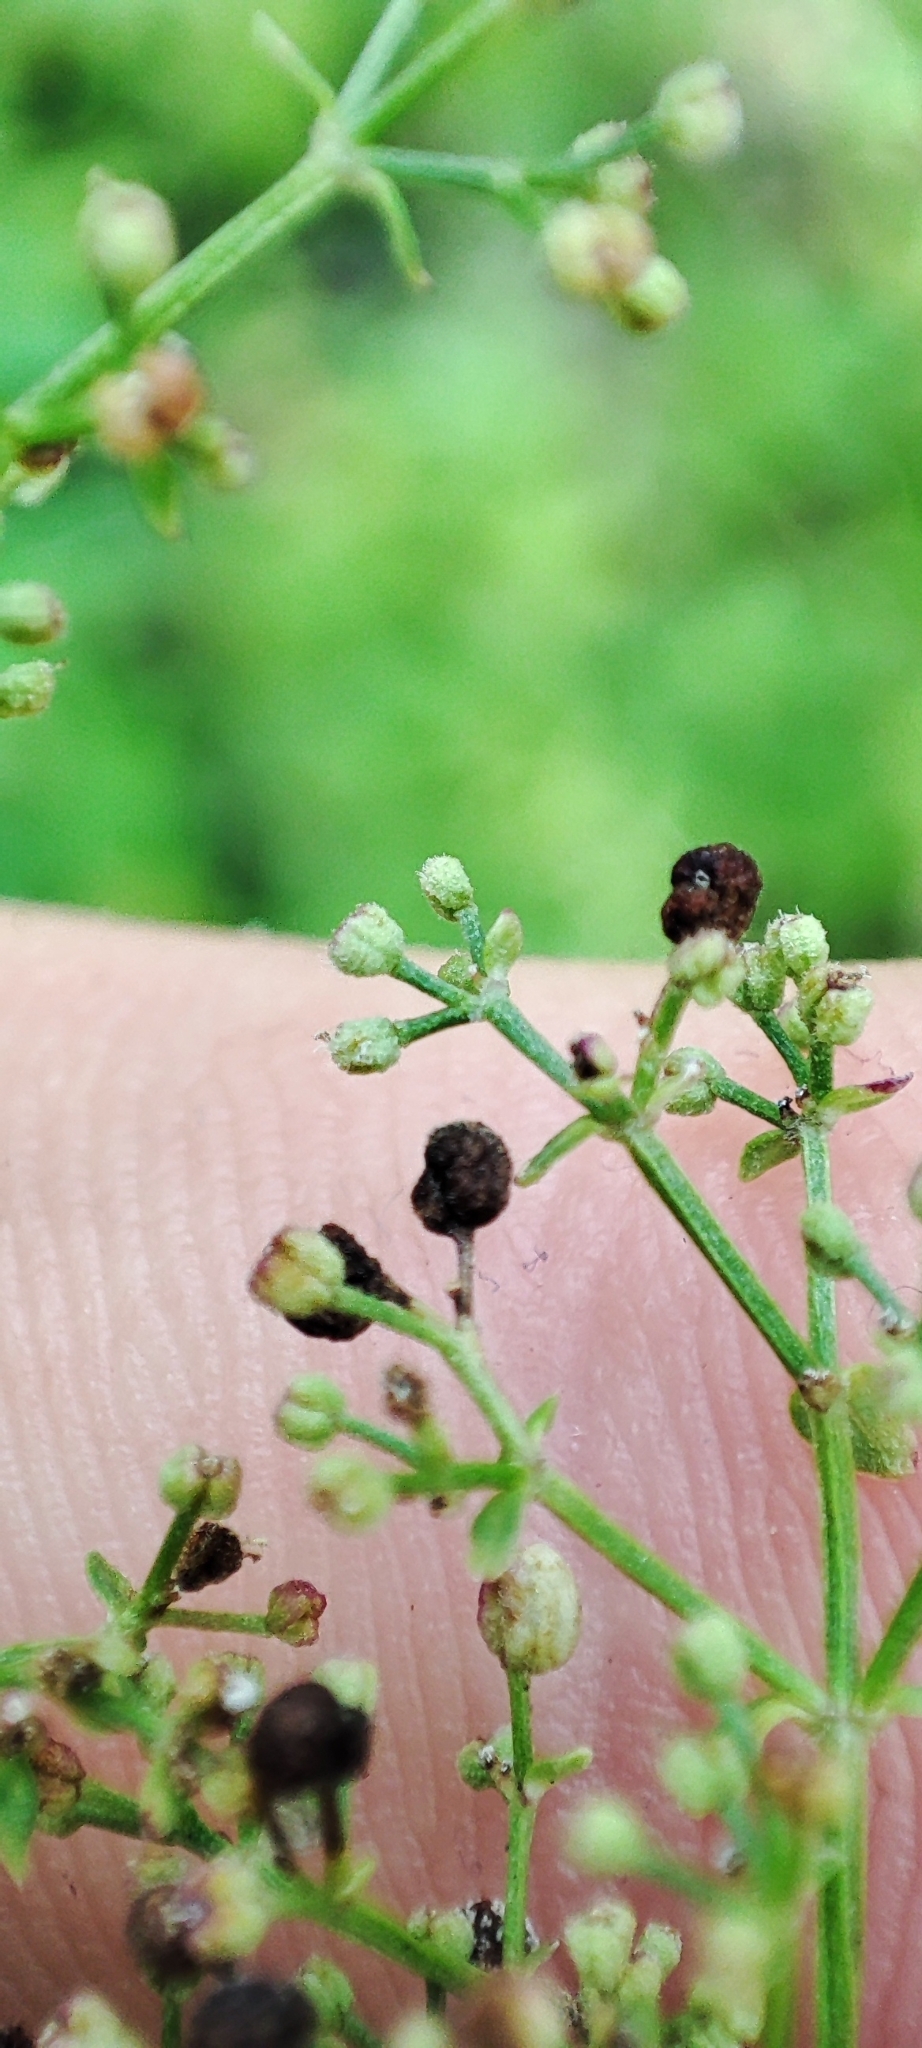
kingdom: Plantae
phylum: Tracheophyta
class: Magnoliopsida
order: Gentianales
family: Rubiaceae
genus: Galium
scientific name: Galium pseudoboreale
